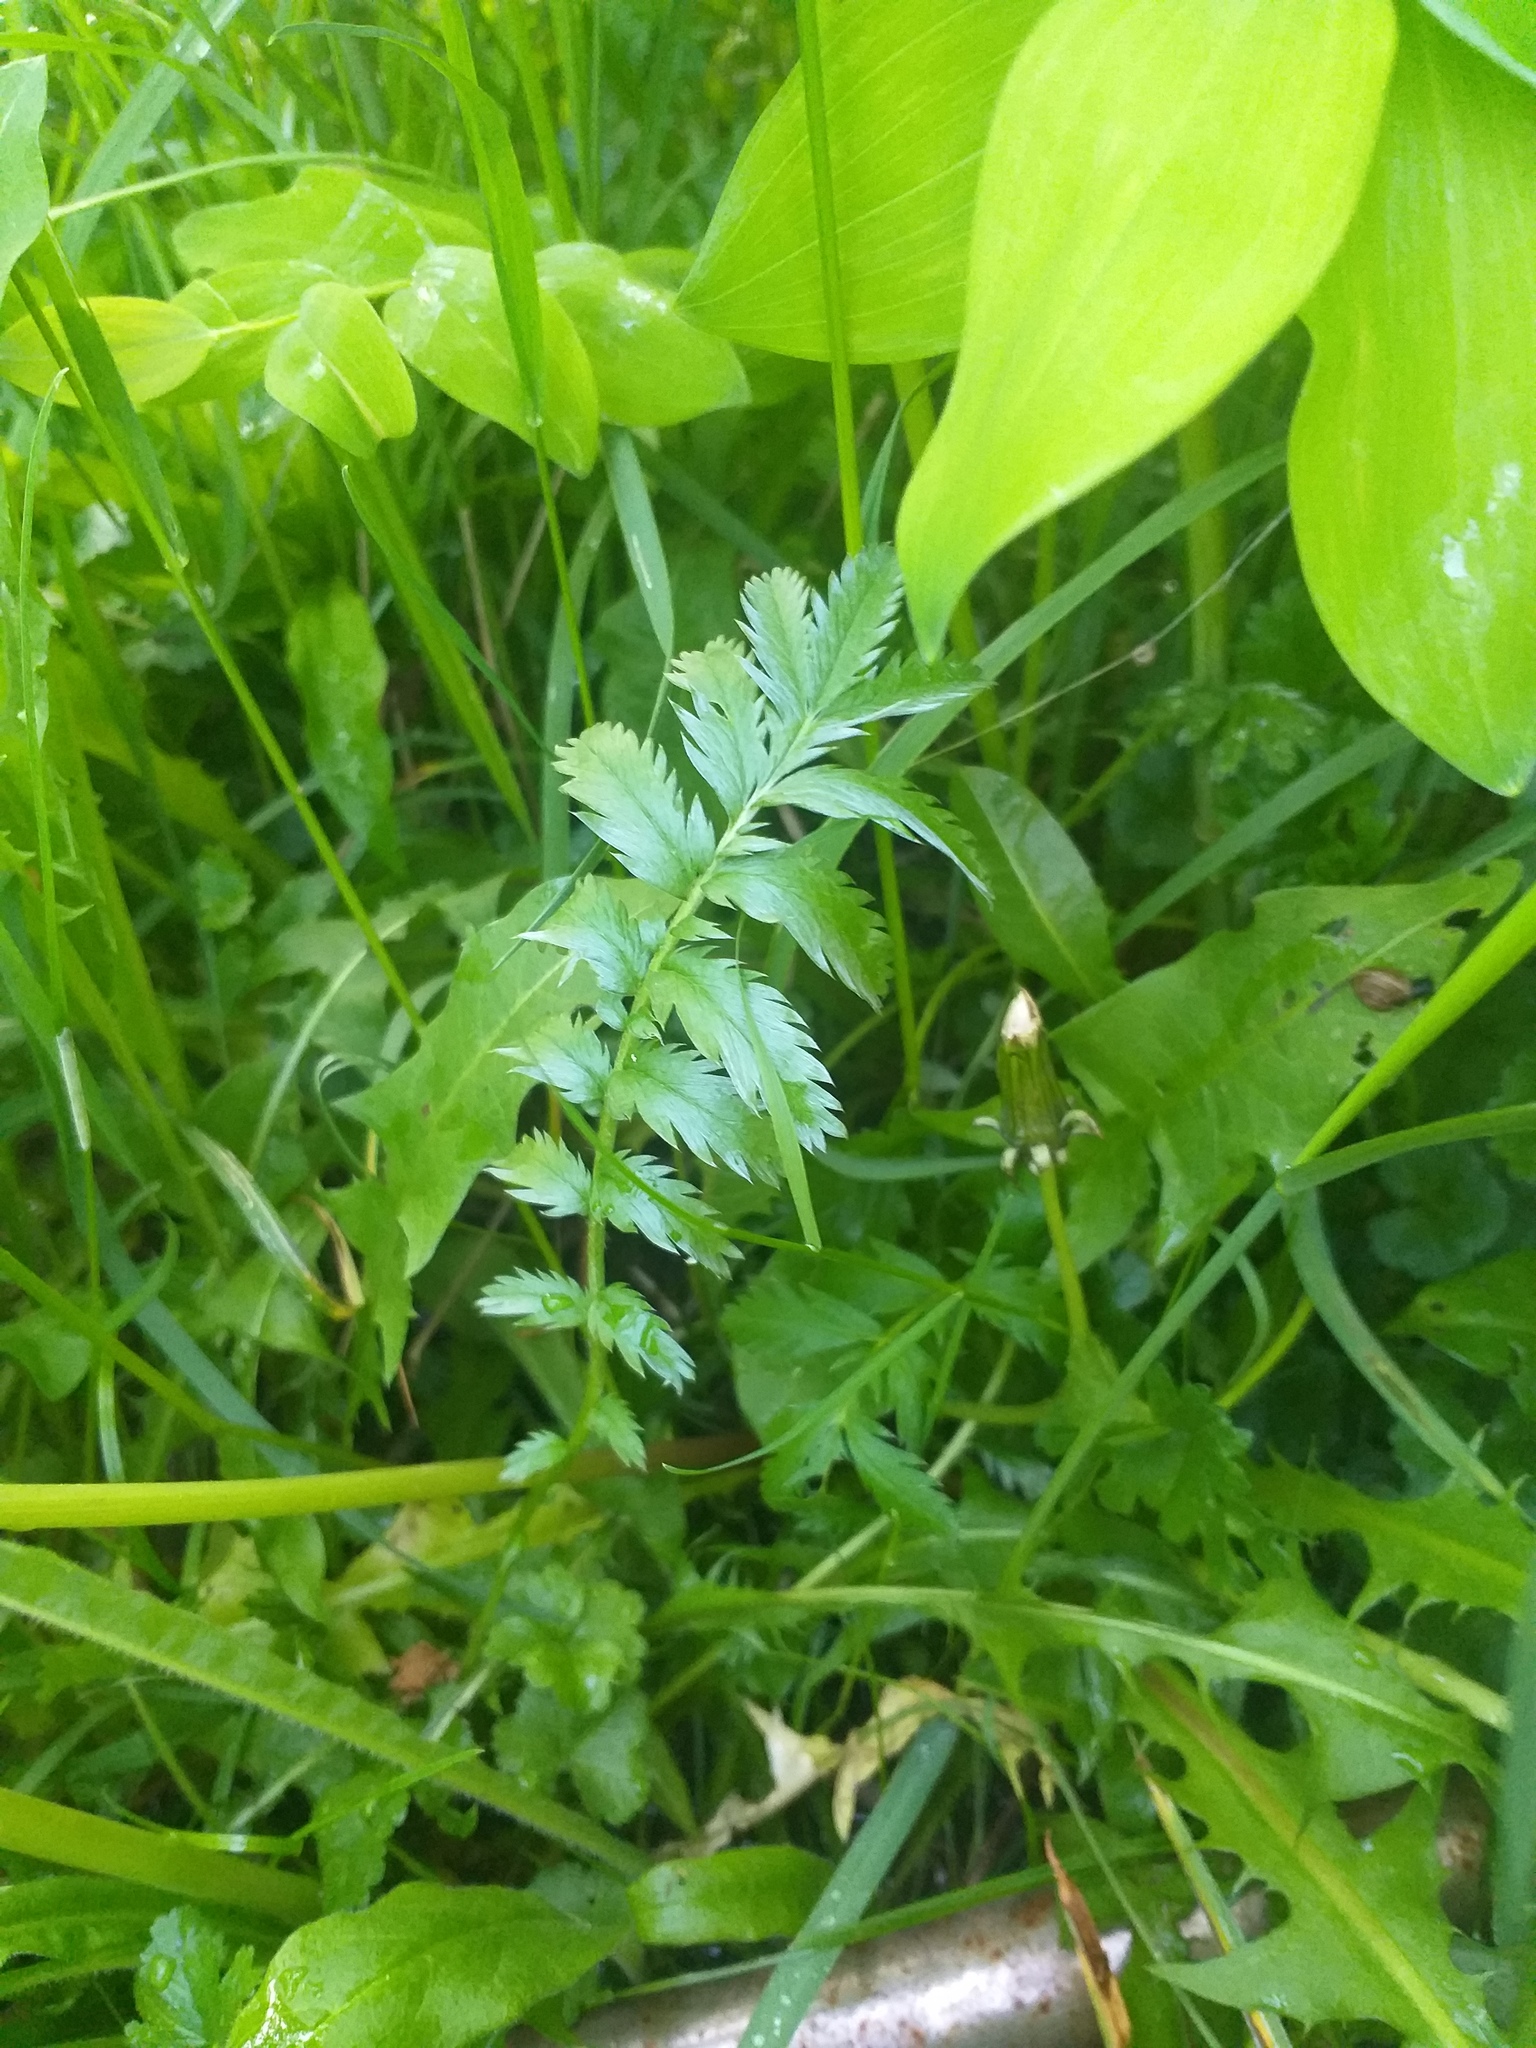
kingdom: Plantae
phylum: Tracheophyta
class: Magnoliopsida
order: Rosales
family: Rosaceae
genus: Argentina
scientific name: Argentina anserina
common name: Common silverweed
